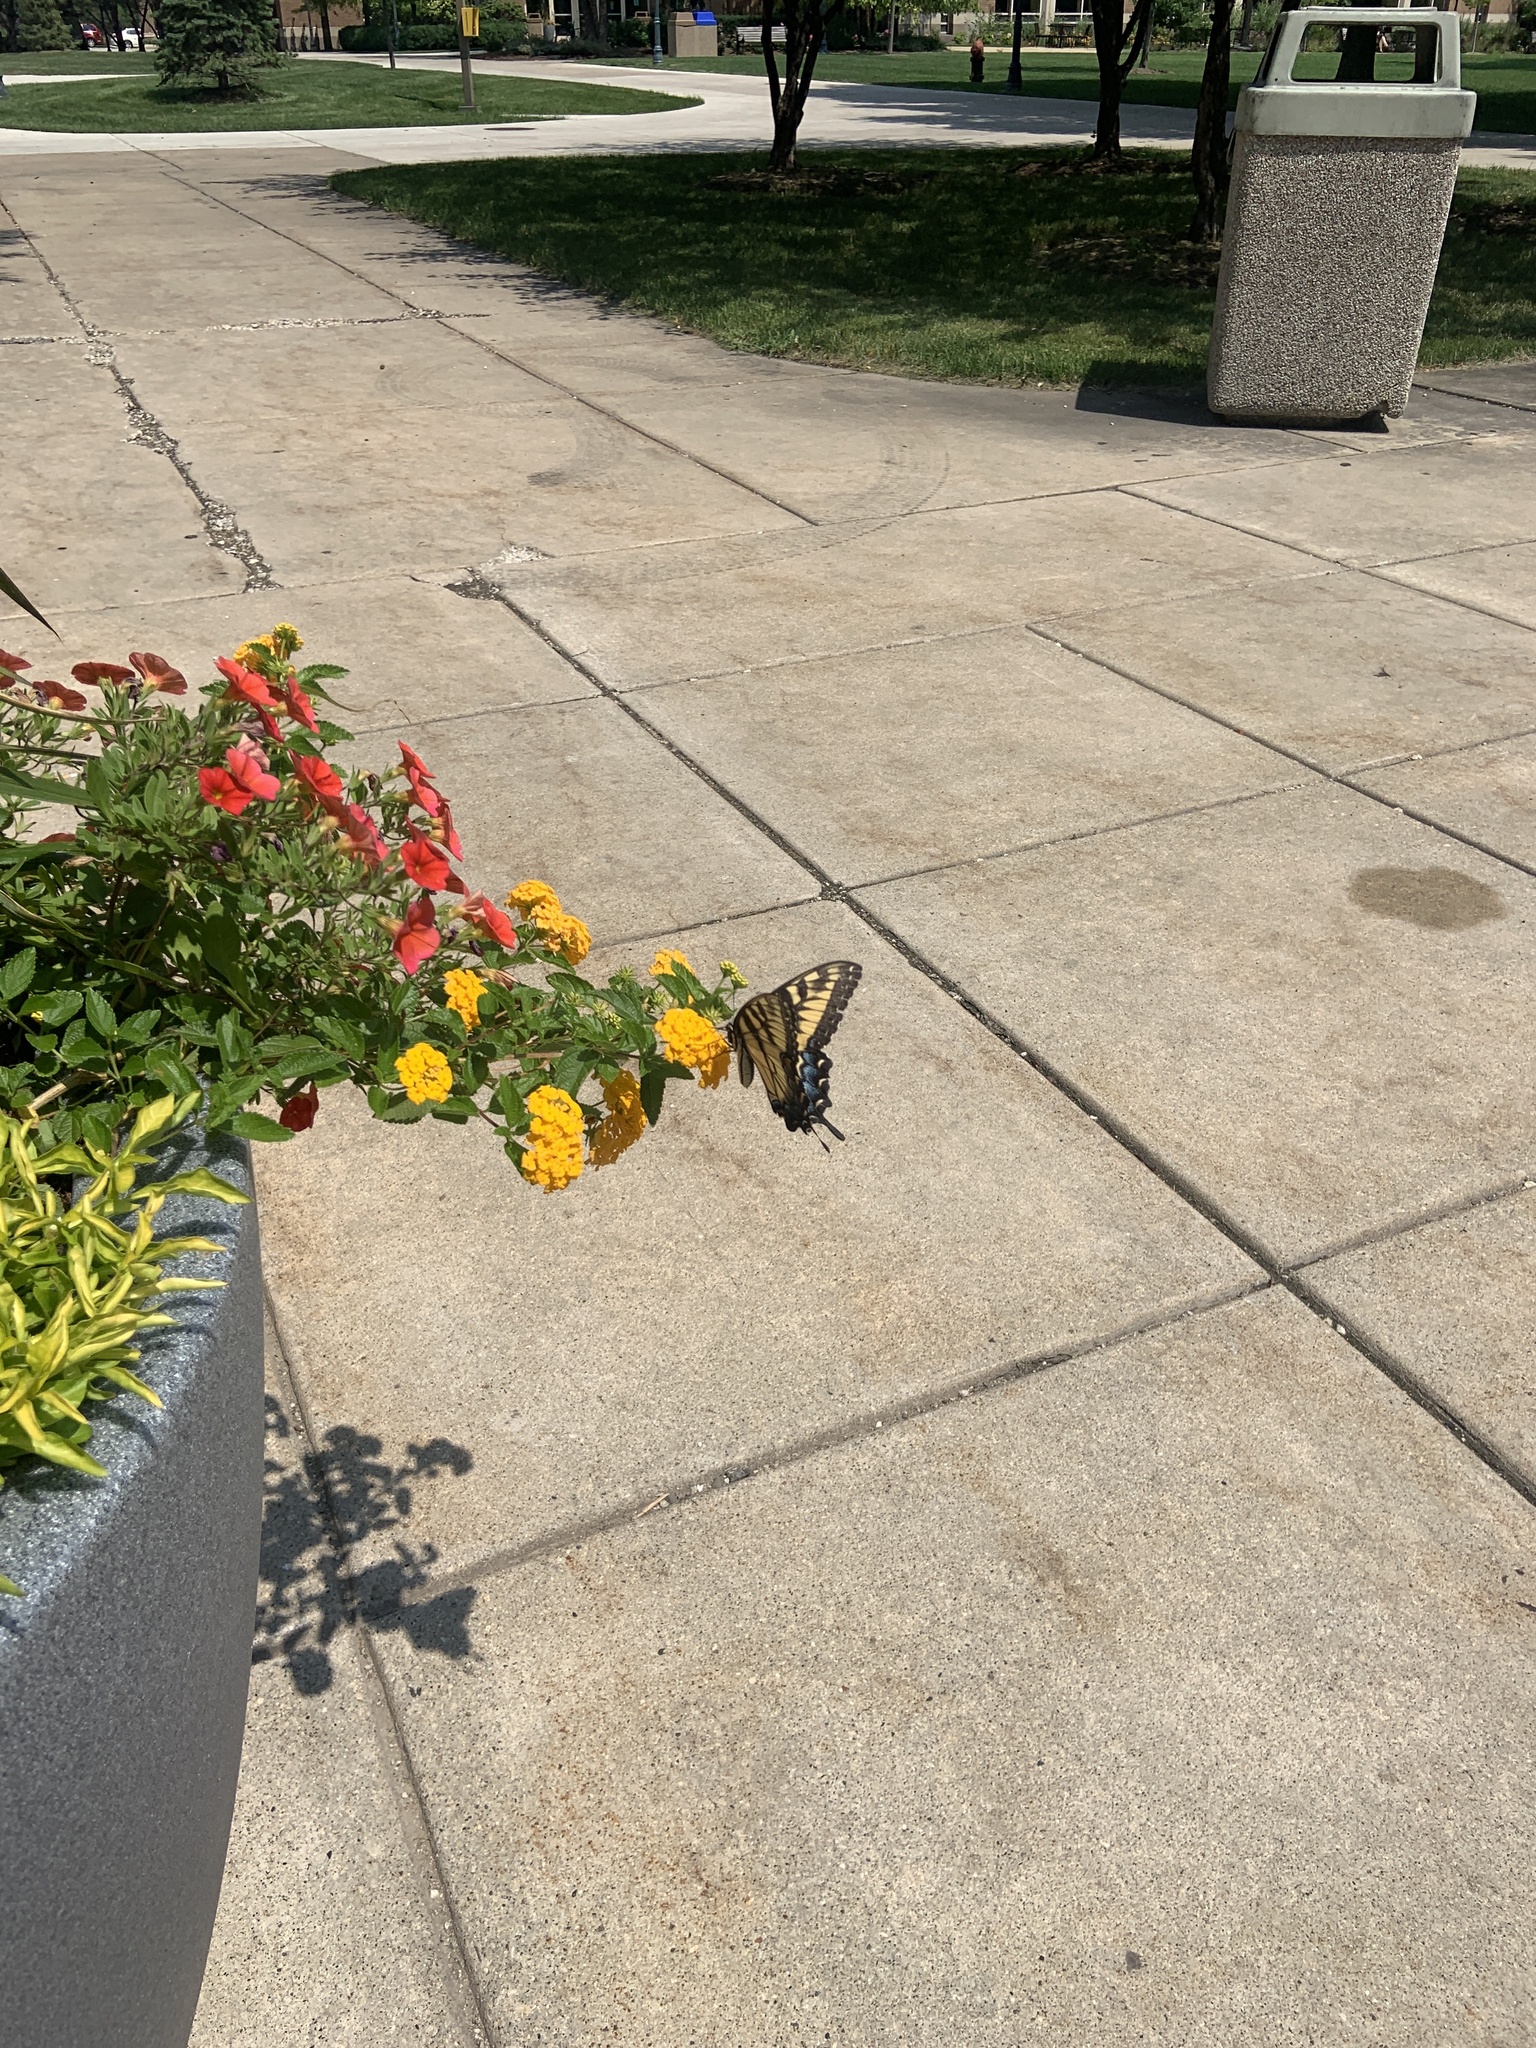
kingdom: Animalia
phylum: Arthropoda
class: Insecta
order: Lepidoptera
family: Papilionidae
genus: Papilio
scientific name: Papilio glaucus
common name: Tiger swallowtail
